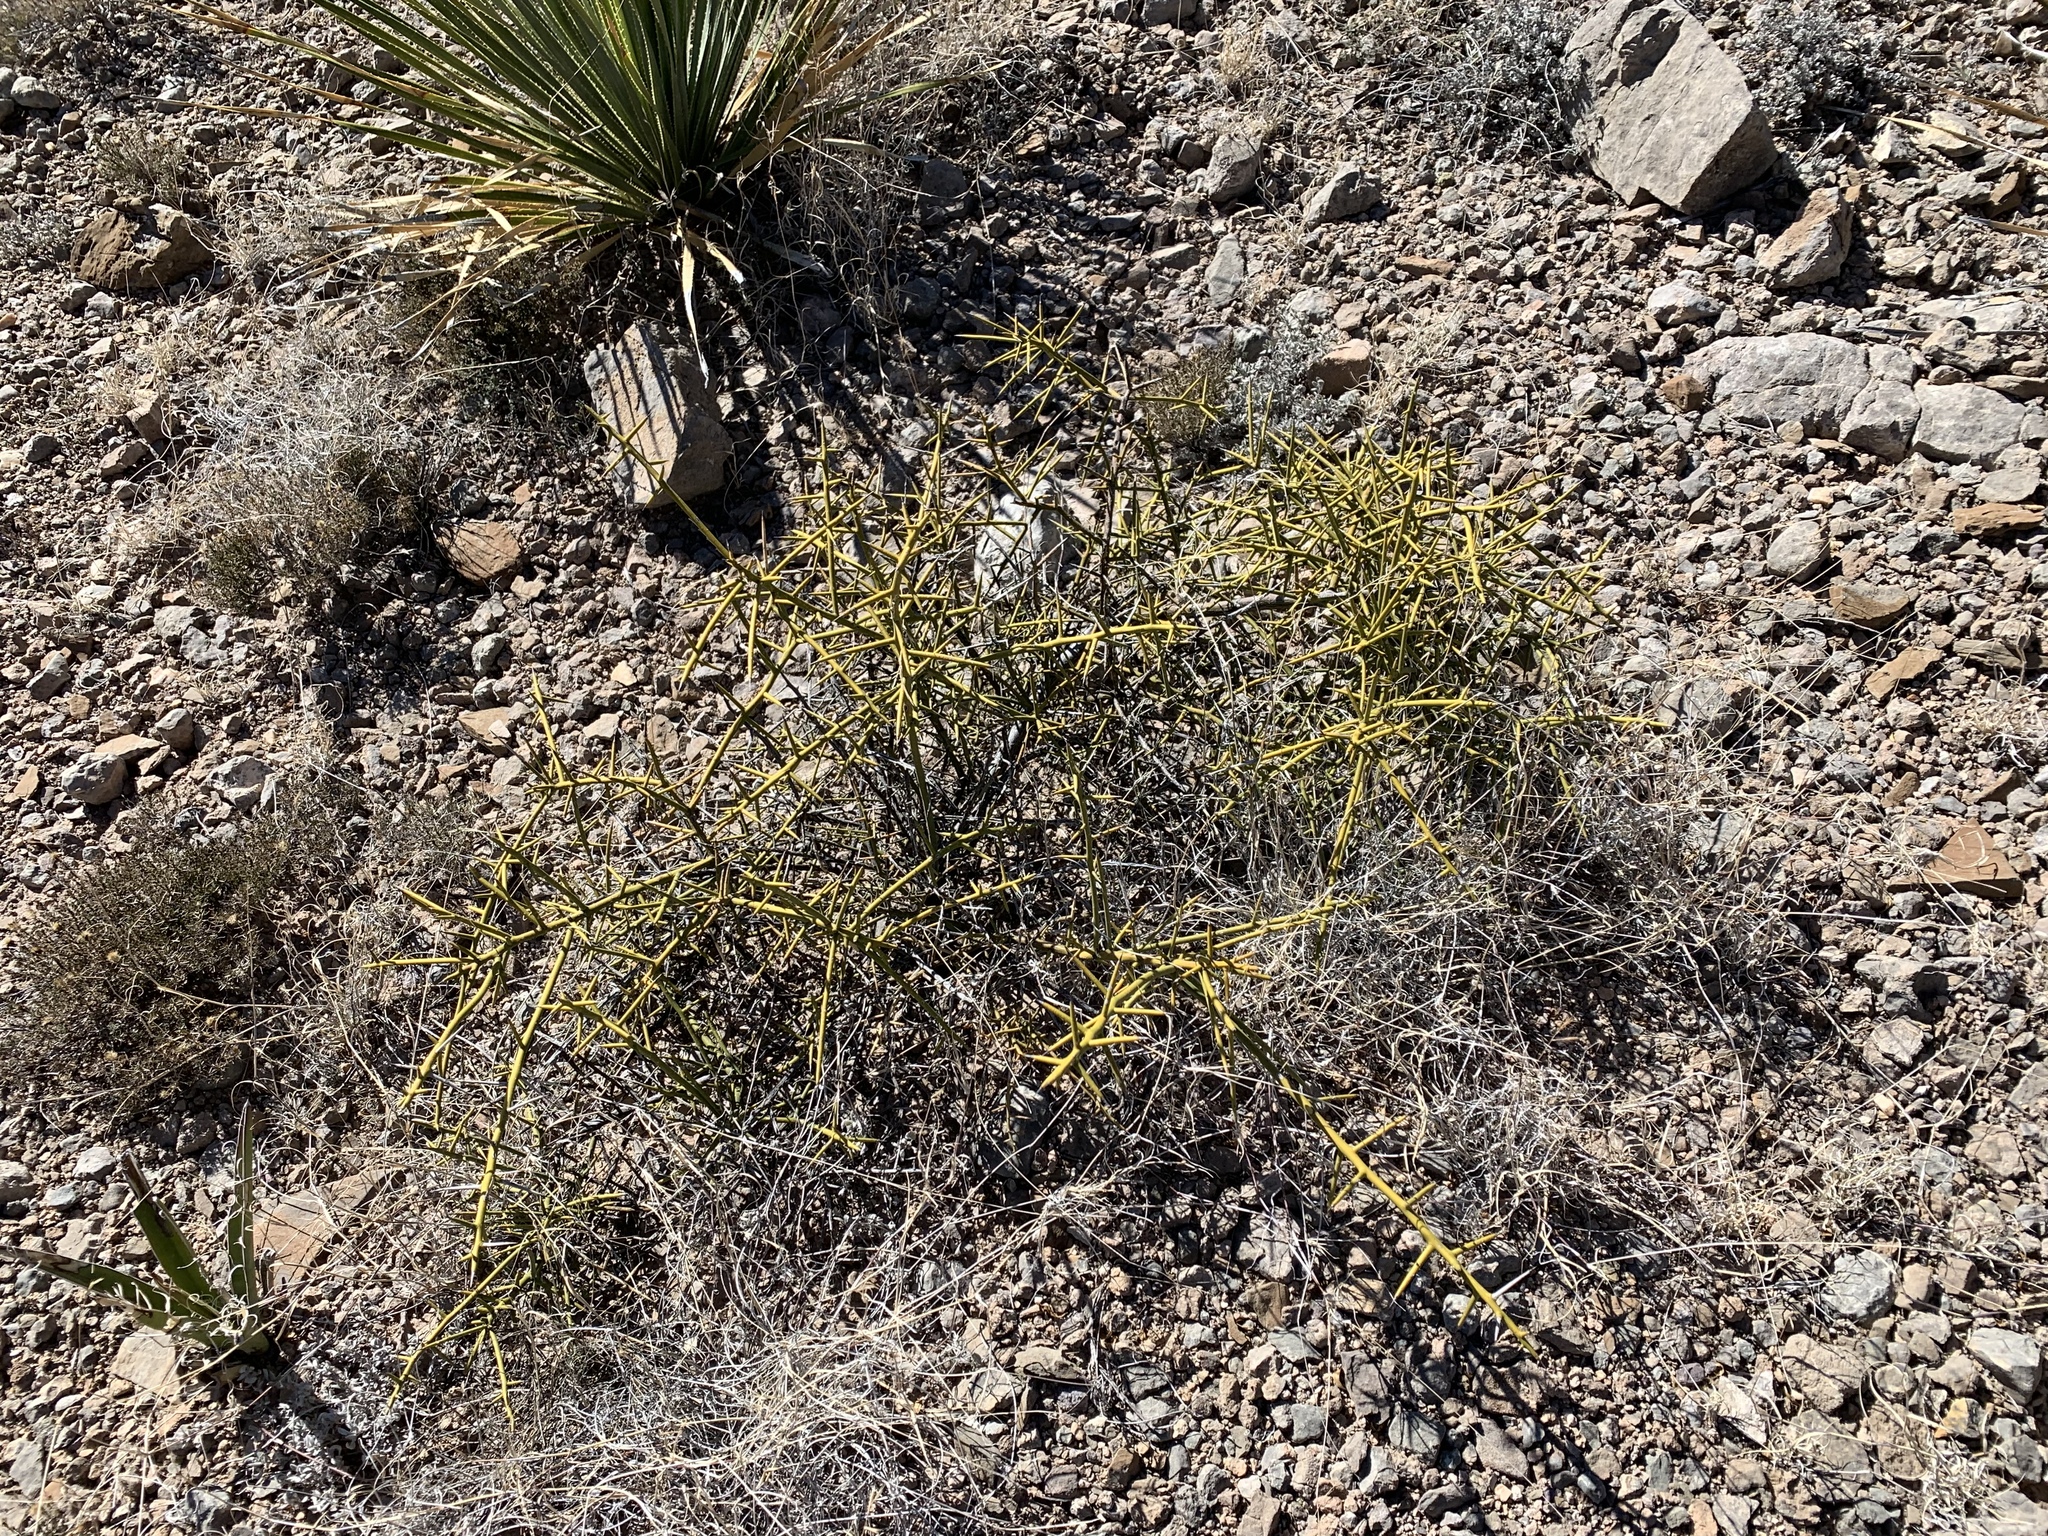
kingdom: Plantae
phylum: Tracheophyta
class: Magnoliopsida
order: Brassicales
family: Koeberliniaceae
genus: Koeberlinia
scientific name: Koeberlinia spinosa
